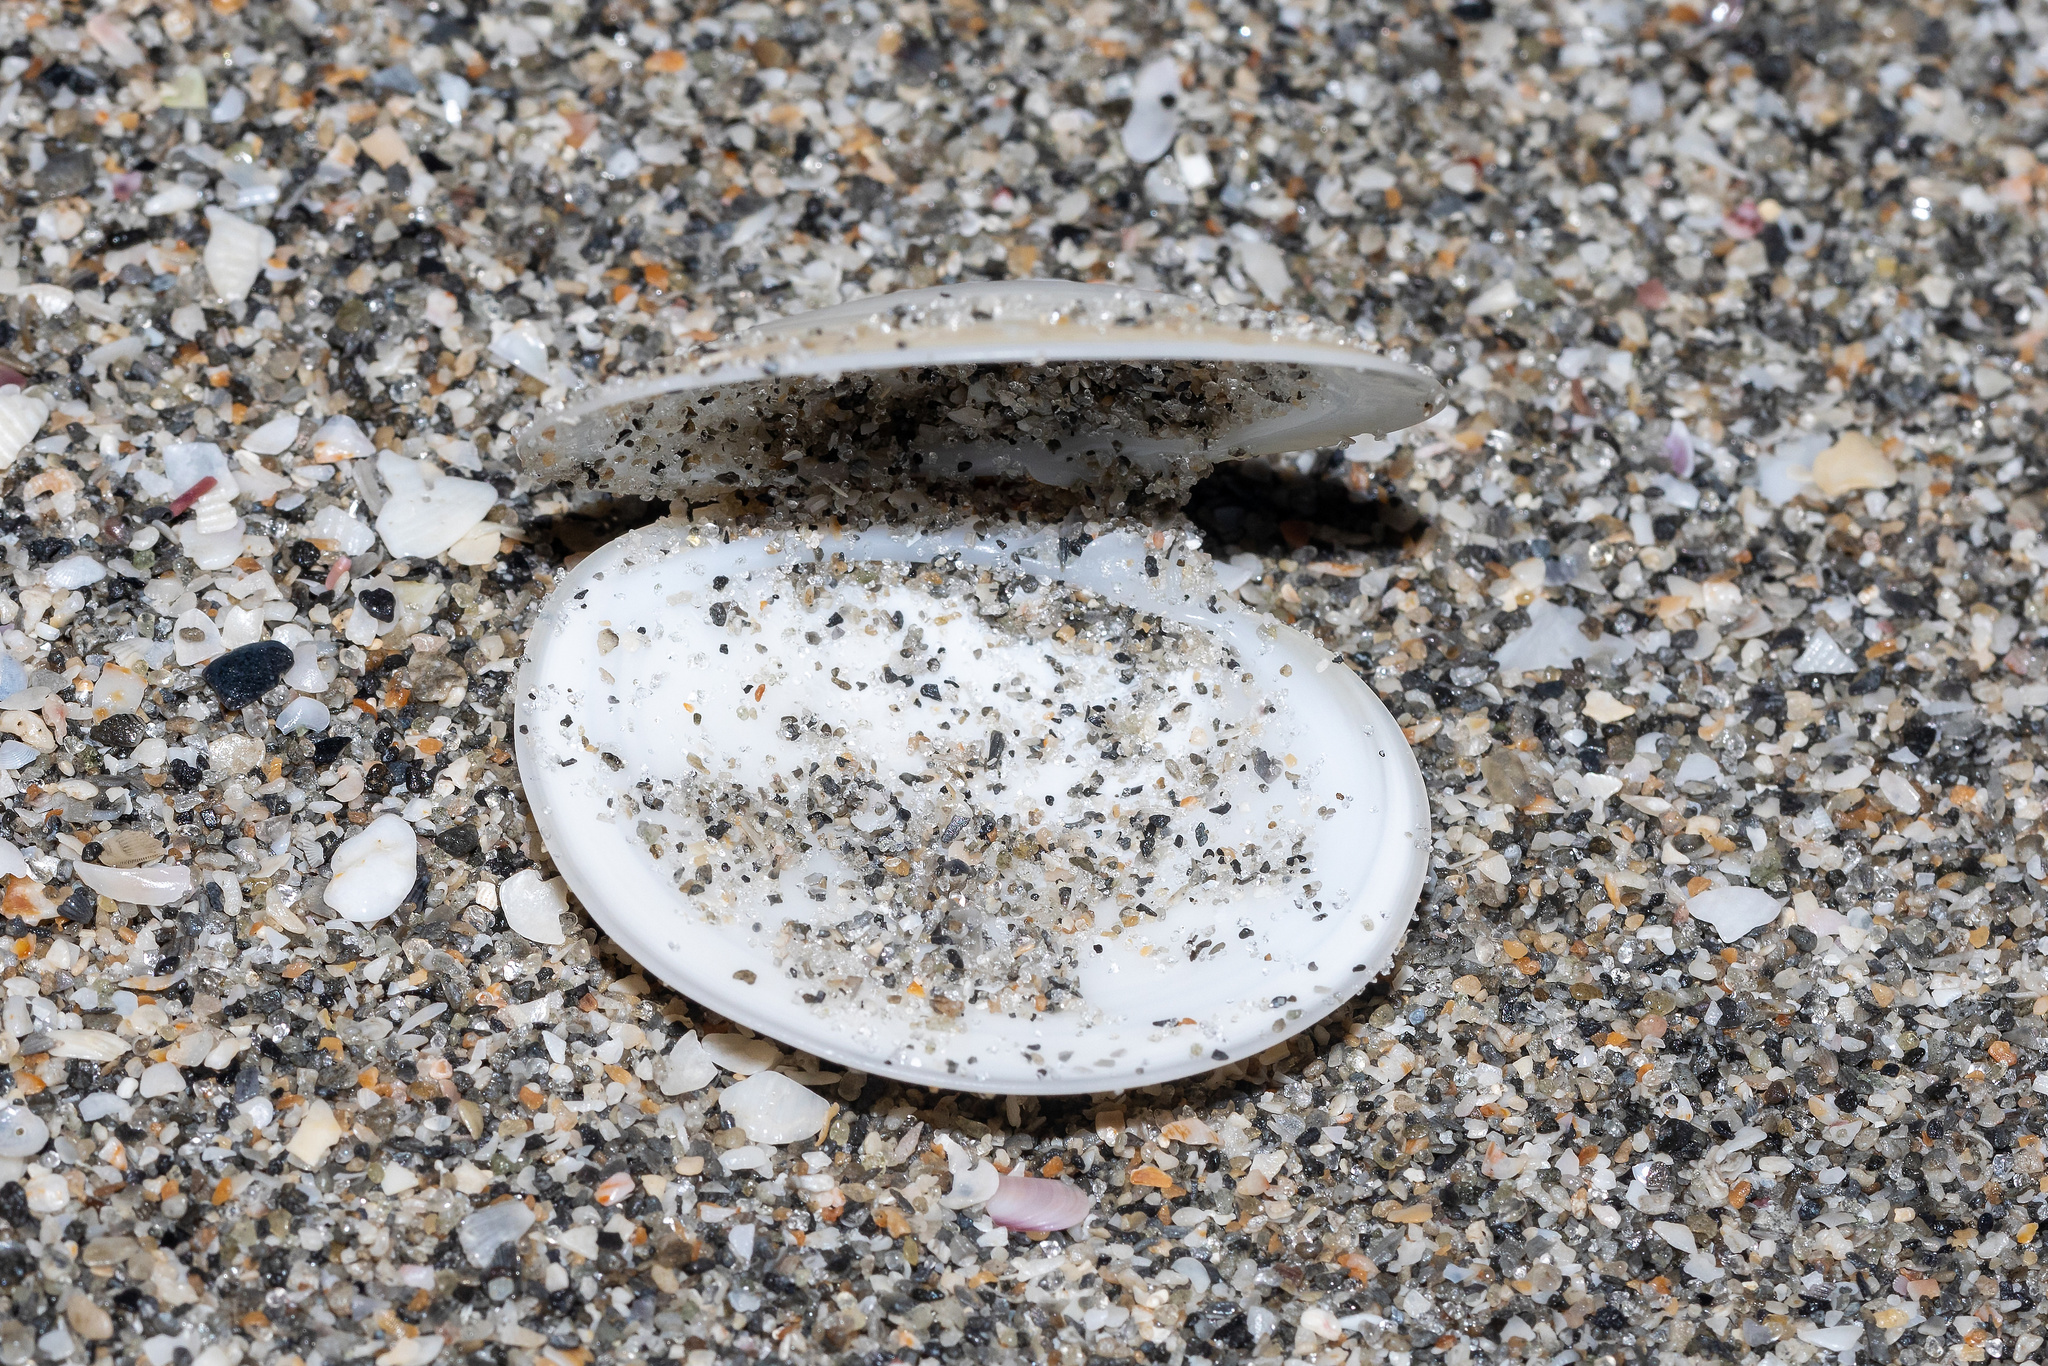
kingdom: Animalia
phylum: Mollusca
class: Bivalvia
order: Venerida
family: Veneridae
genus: Dosinia
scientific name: Dosinia discus
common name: Disk dosinia
